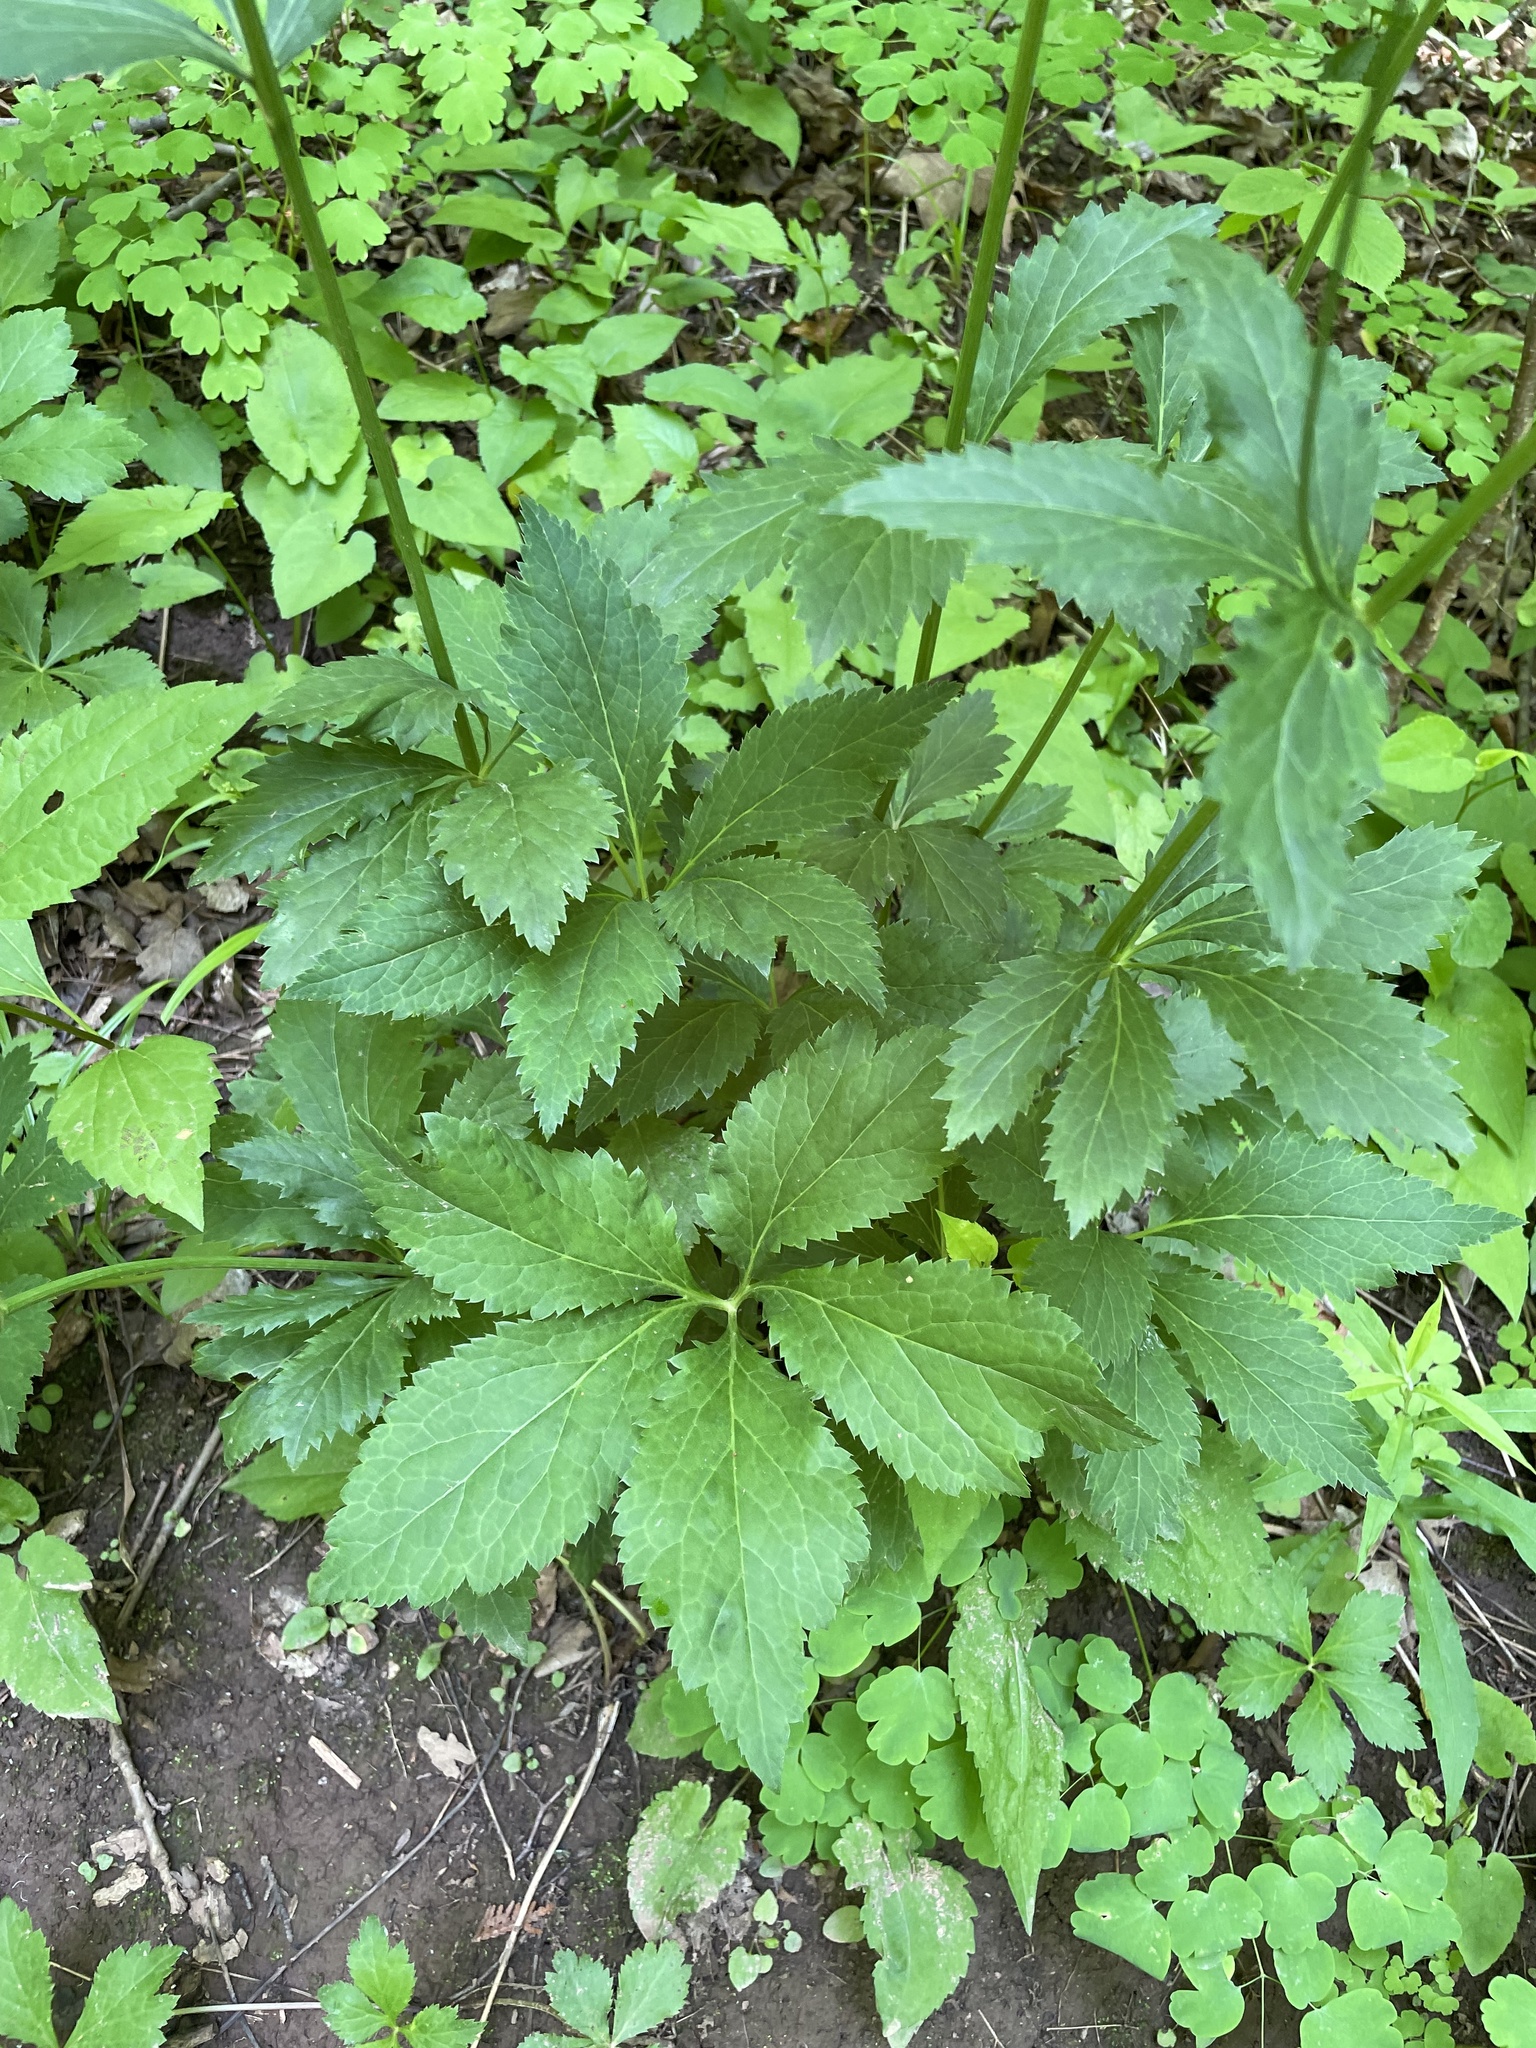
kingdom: Plantae
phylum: Tracheophyta
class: Magnoliopsida
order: Apiales
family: Apiaceae
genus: Sanicula
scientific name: Sanicula marilandica
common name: Black snakeroot
